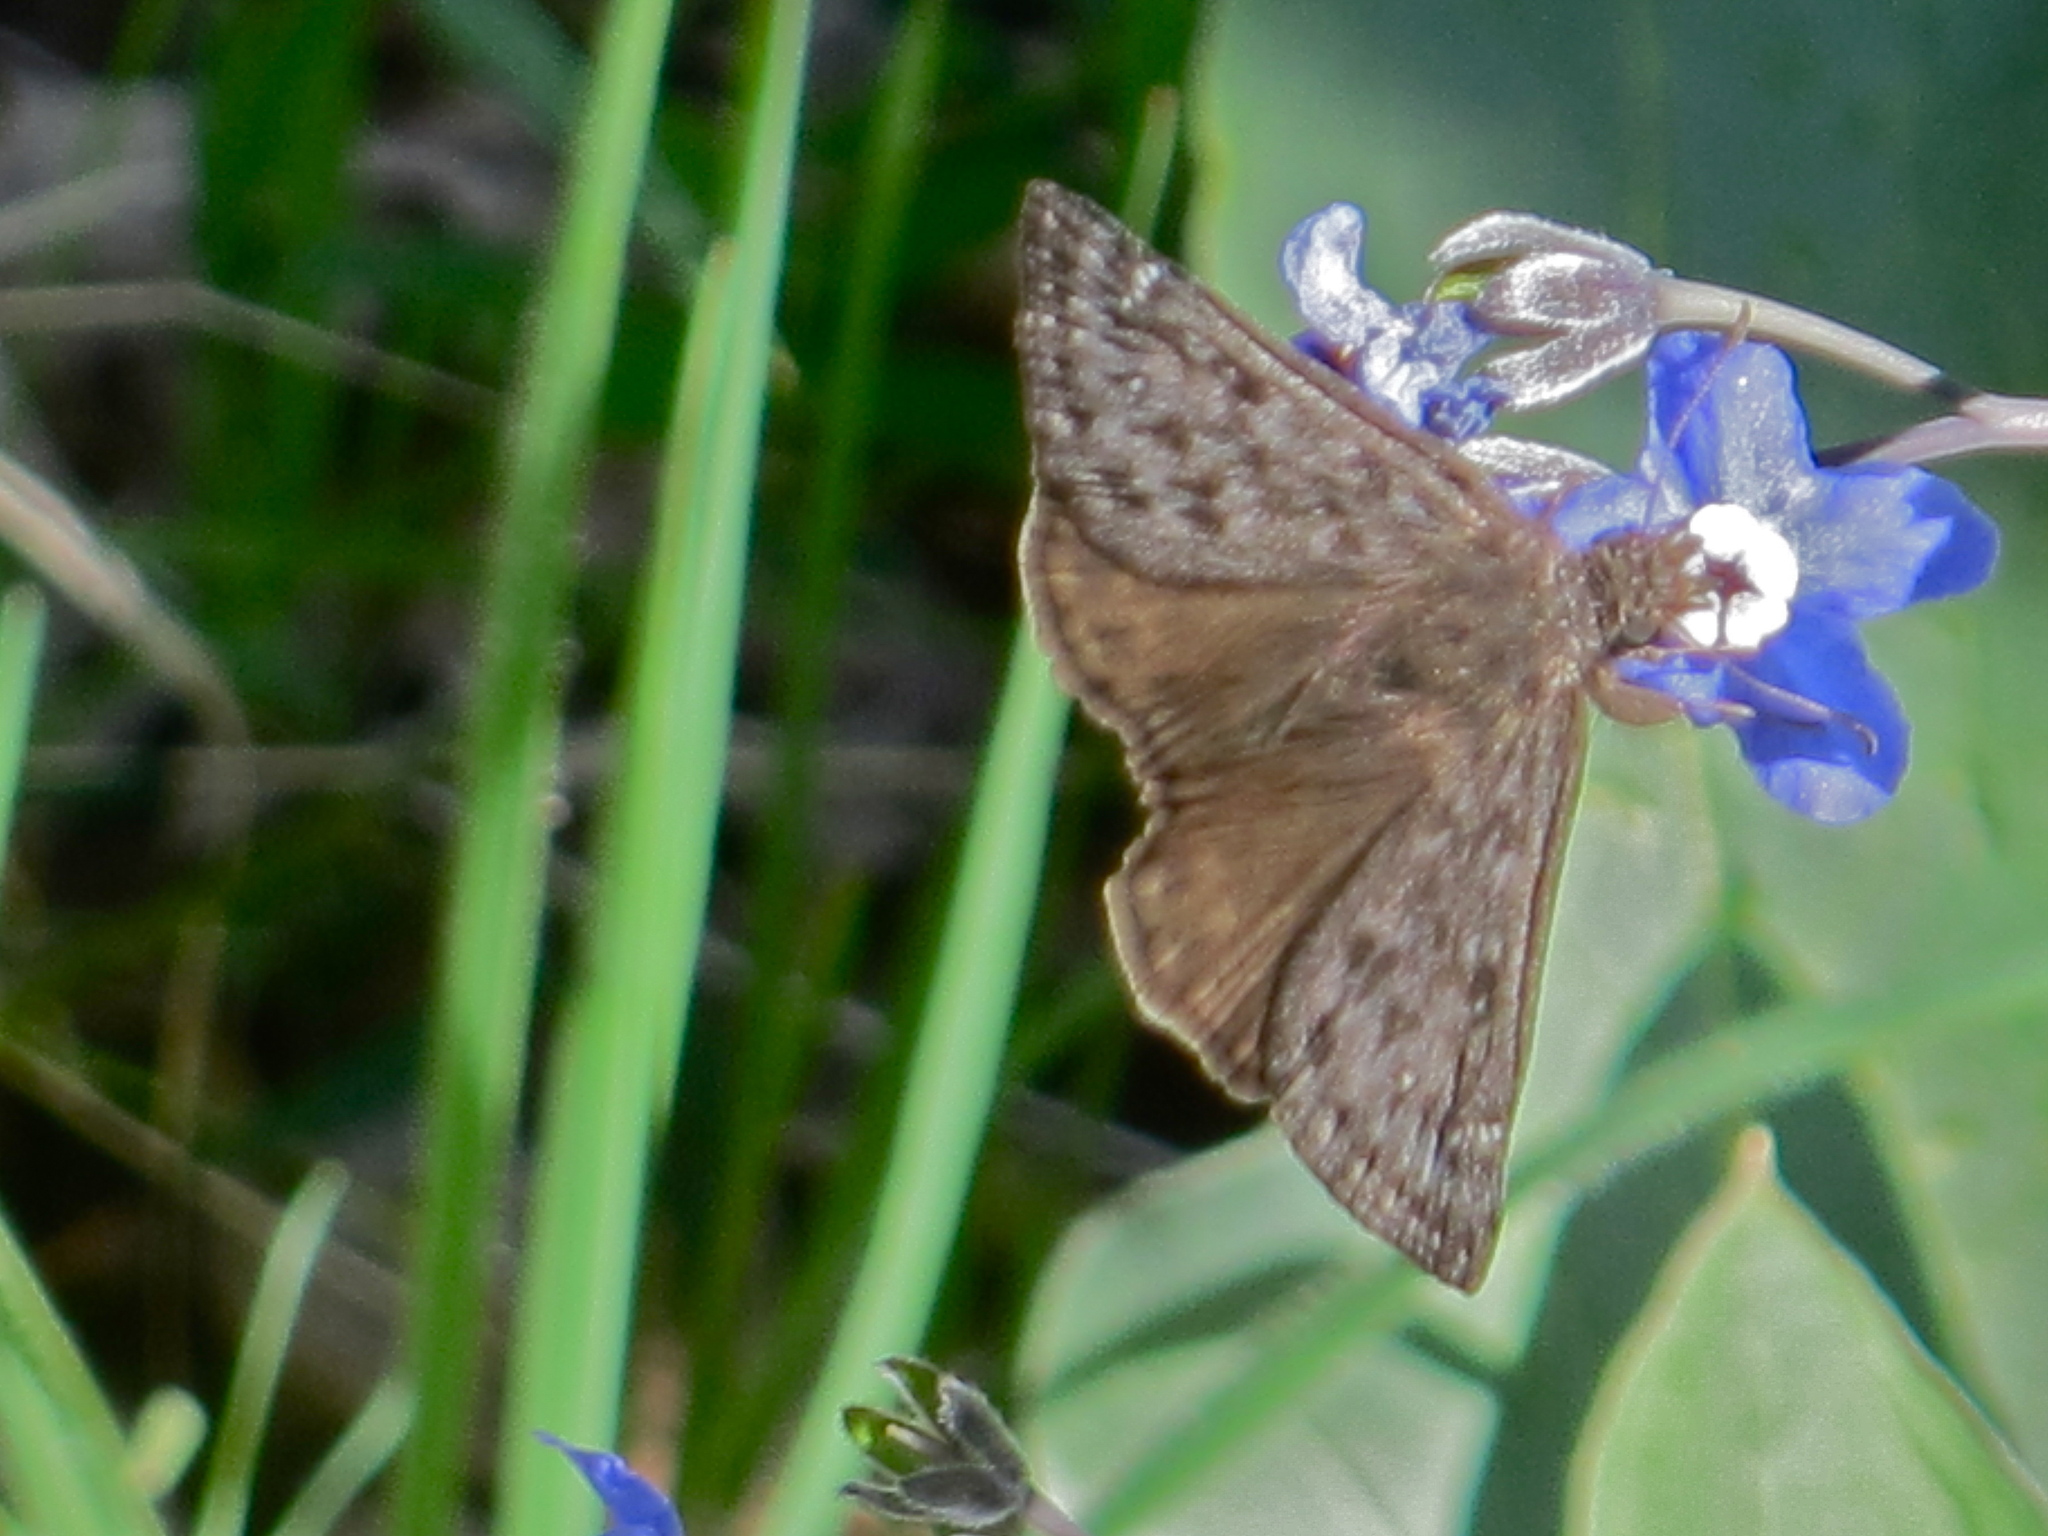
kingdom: Animalia
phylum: Arthropoda
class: Insecta
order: Lepidoptera
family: Hesperiidae
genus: Erynnis
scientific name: Erynnis propertius
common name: Propertius duskywing
